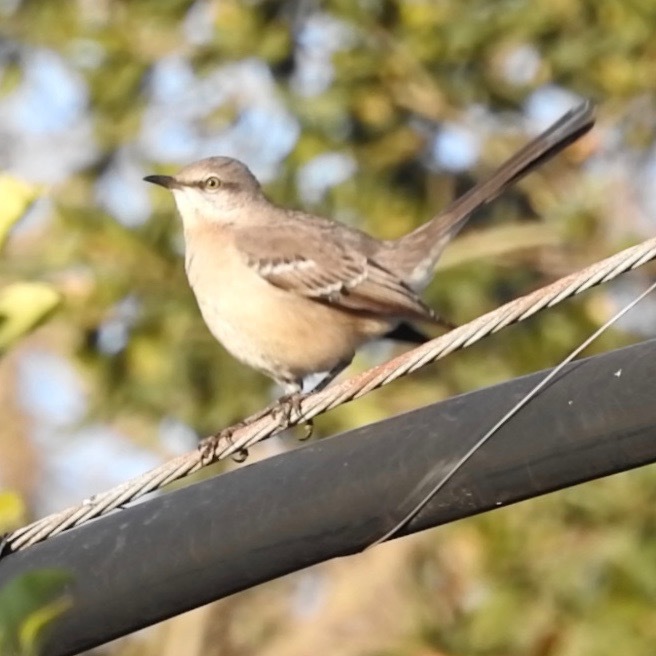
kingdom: Animalia
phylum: Chordata
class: Aves
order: Passeriformes
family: Mimidae
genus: Mimus
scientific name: Mimus polyglottos
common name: Northern mockingbird
